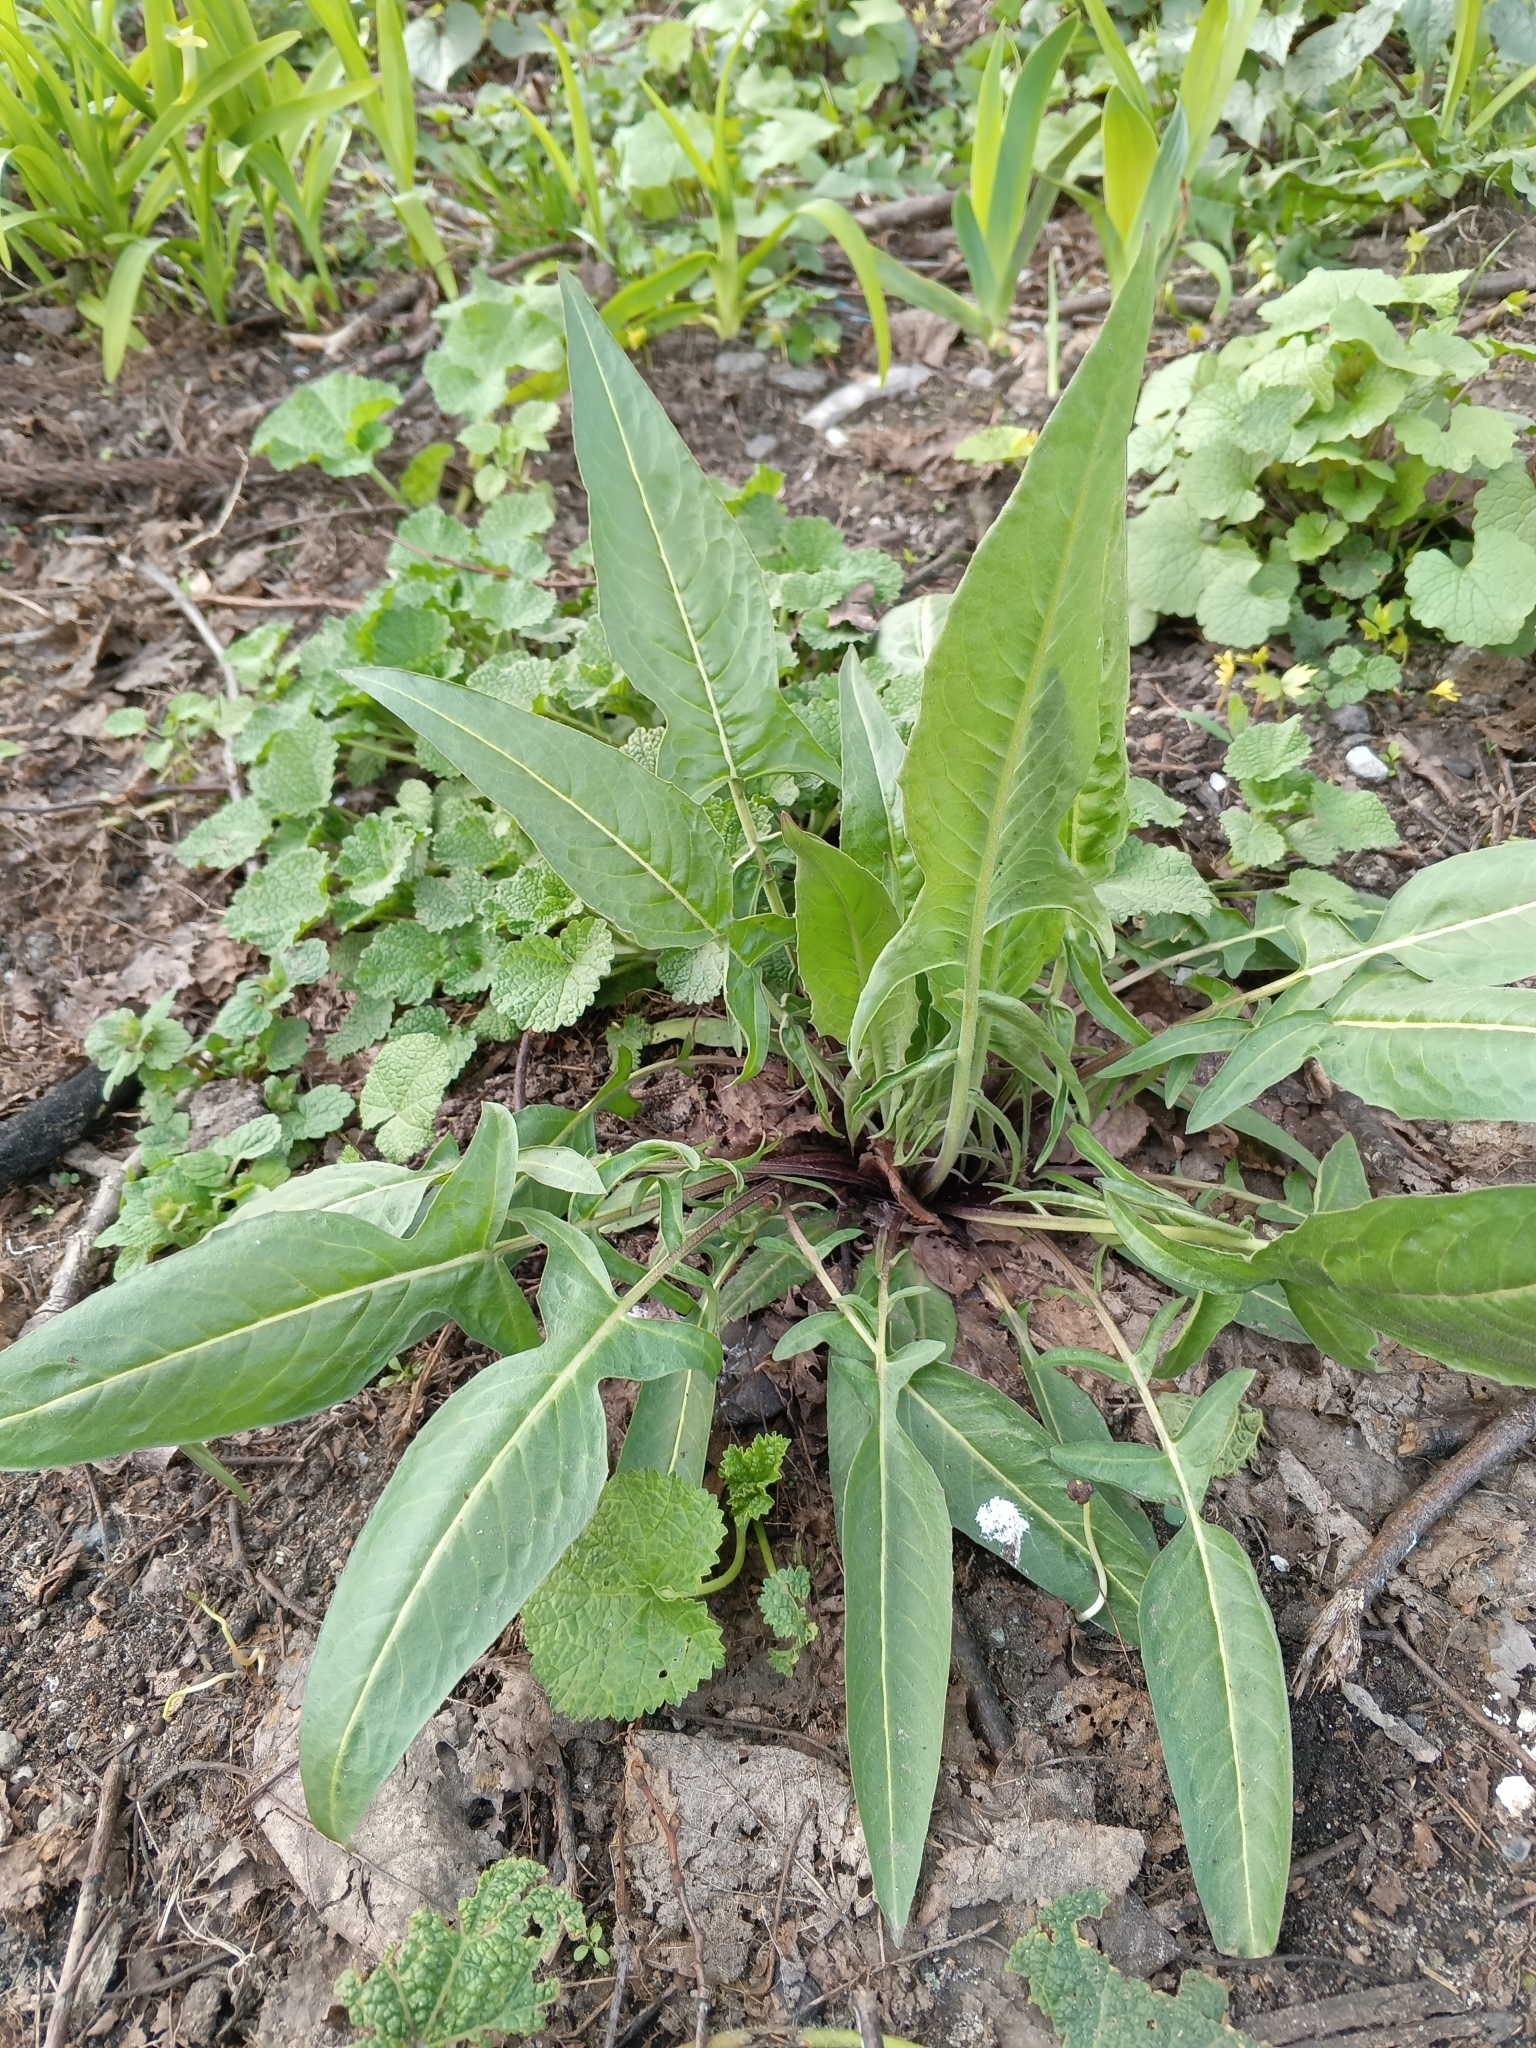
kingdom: Plantae
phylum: Tracheophyta
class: Magnoliopsida
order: Brassicales
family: Brassicaceae
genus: Bunias
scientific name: Bunias orientalis
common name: Warty-cabbage
